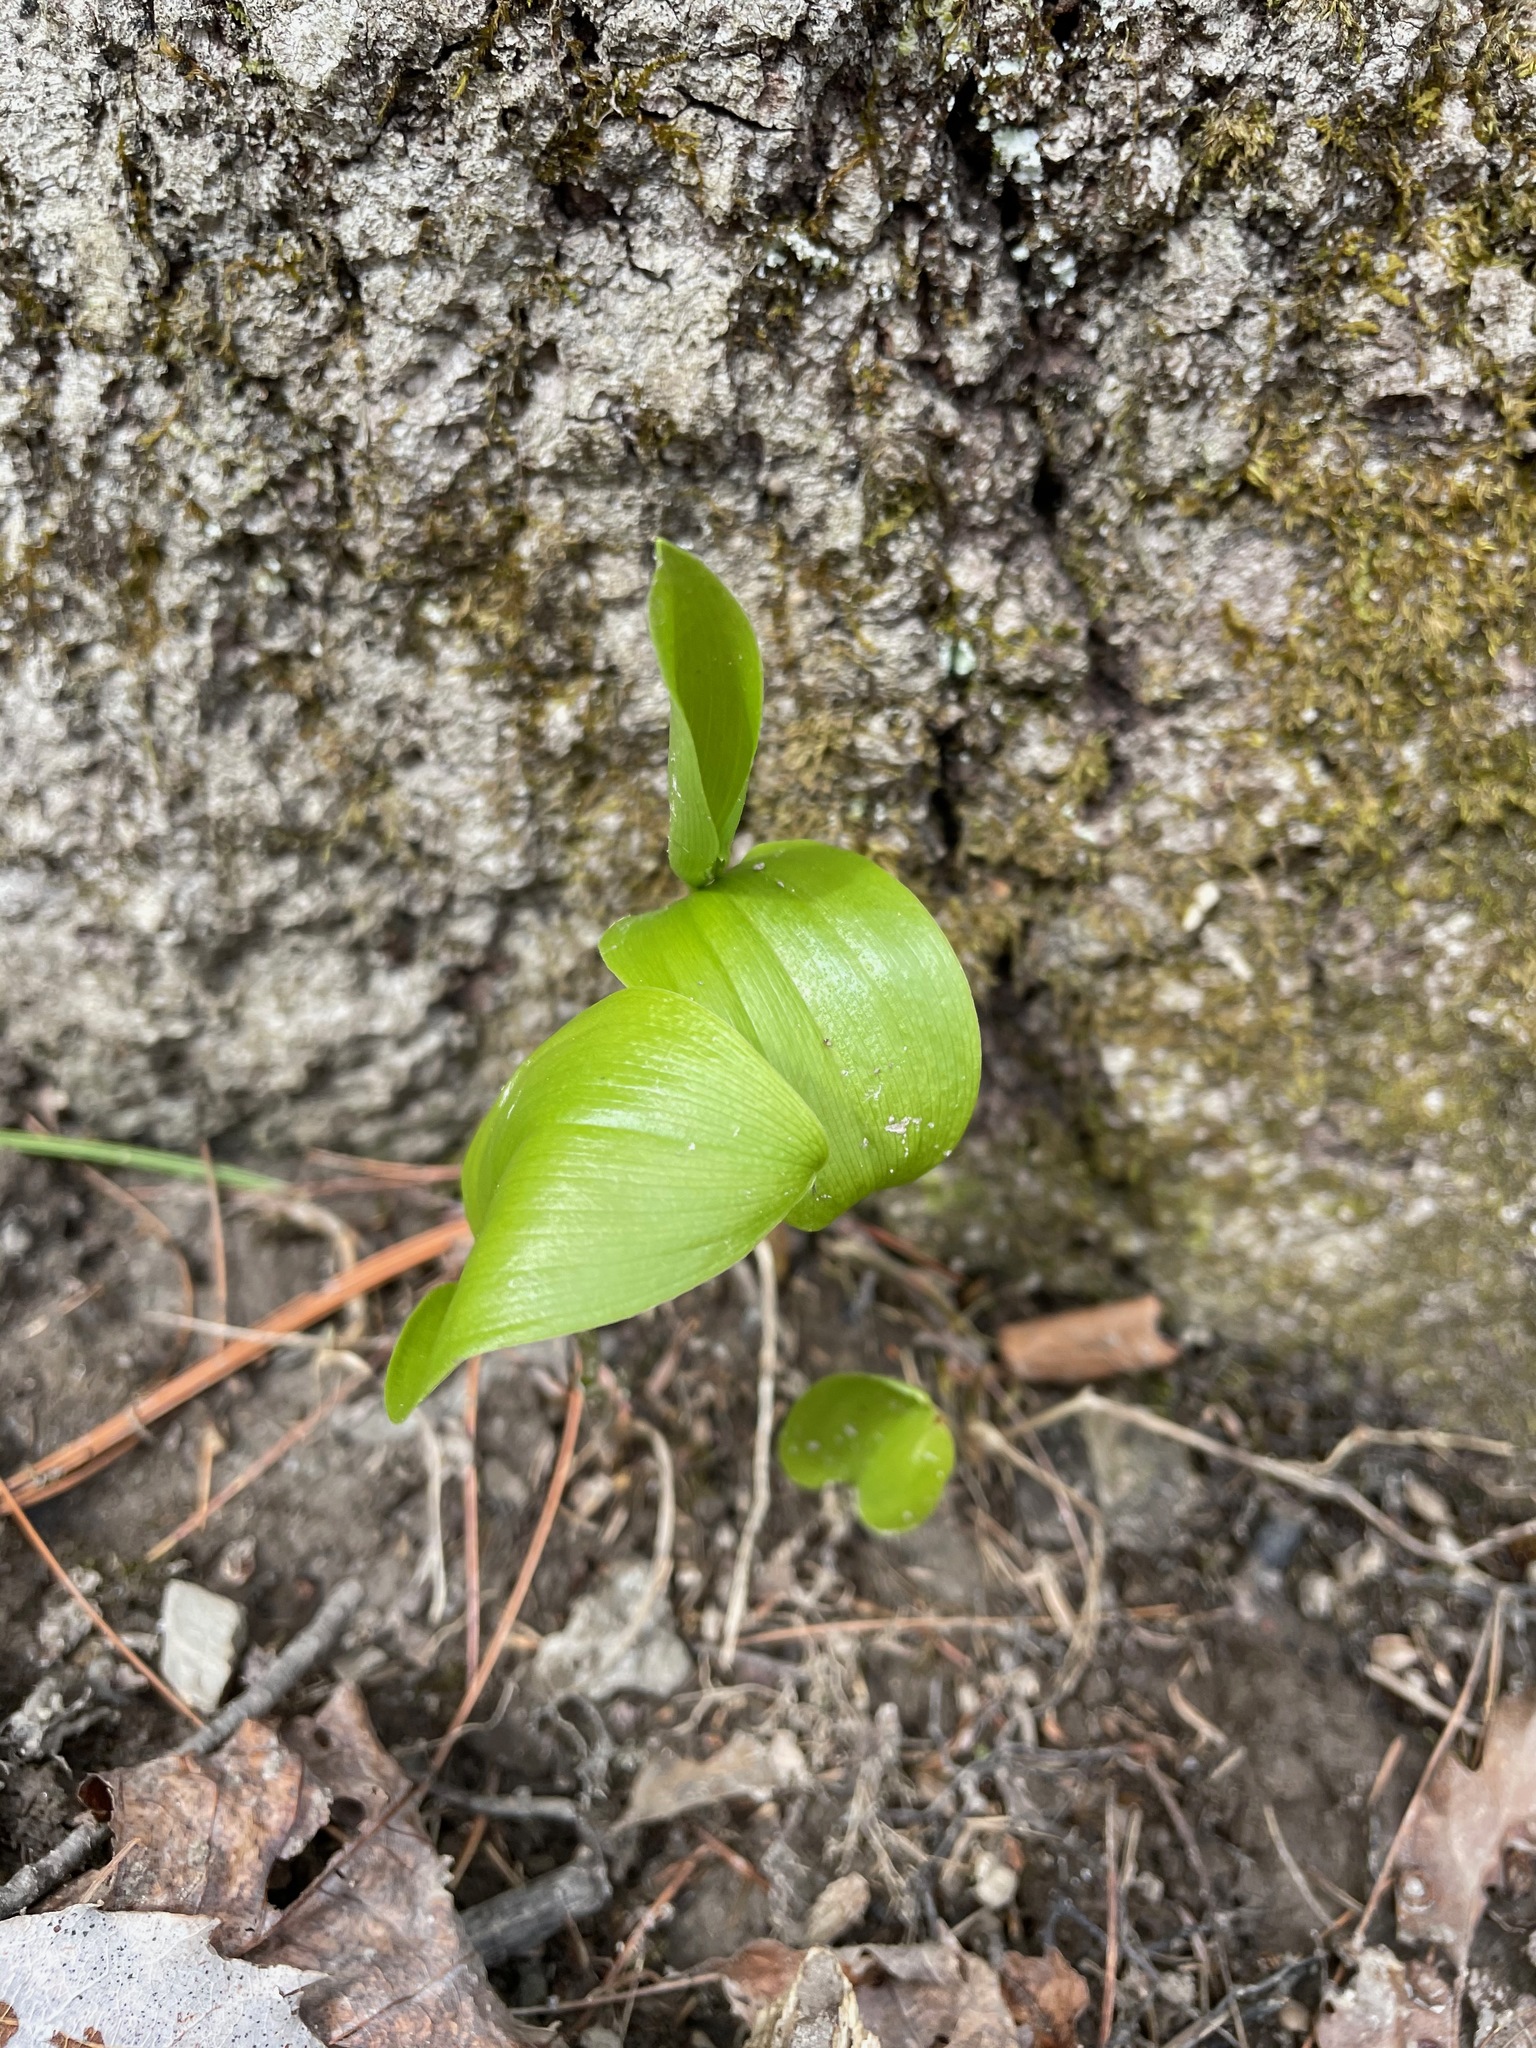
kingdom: Plantae
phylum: Tracheophyta
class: Liliopsida
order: Asparagales
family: Asparagaceae
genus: Maianthemum
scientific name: Maianthemum canadense
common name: False lily-of-the-valley
